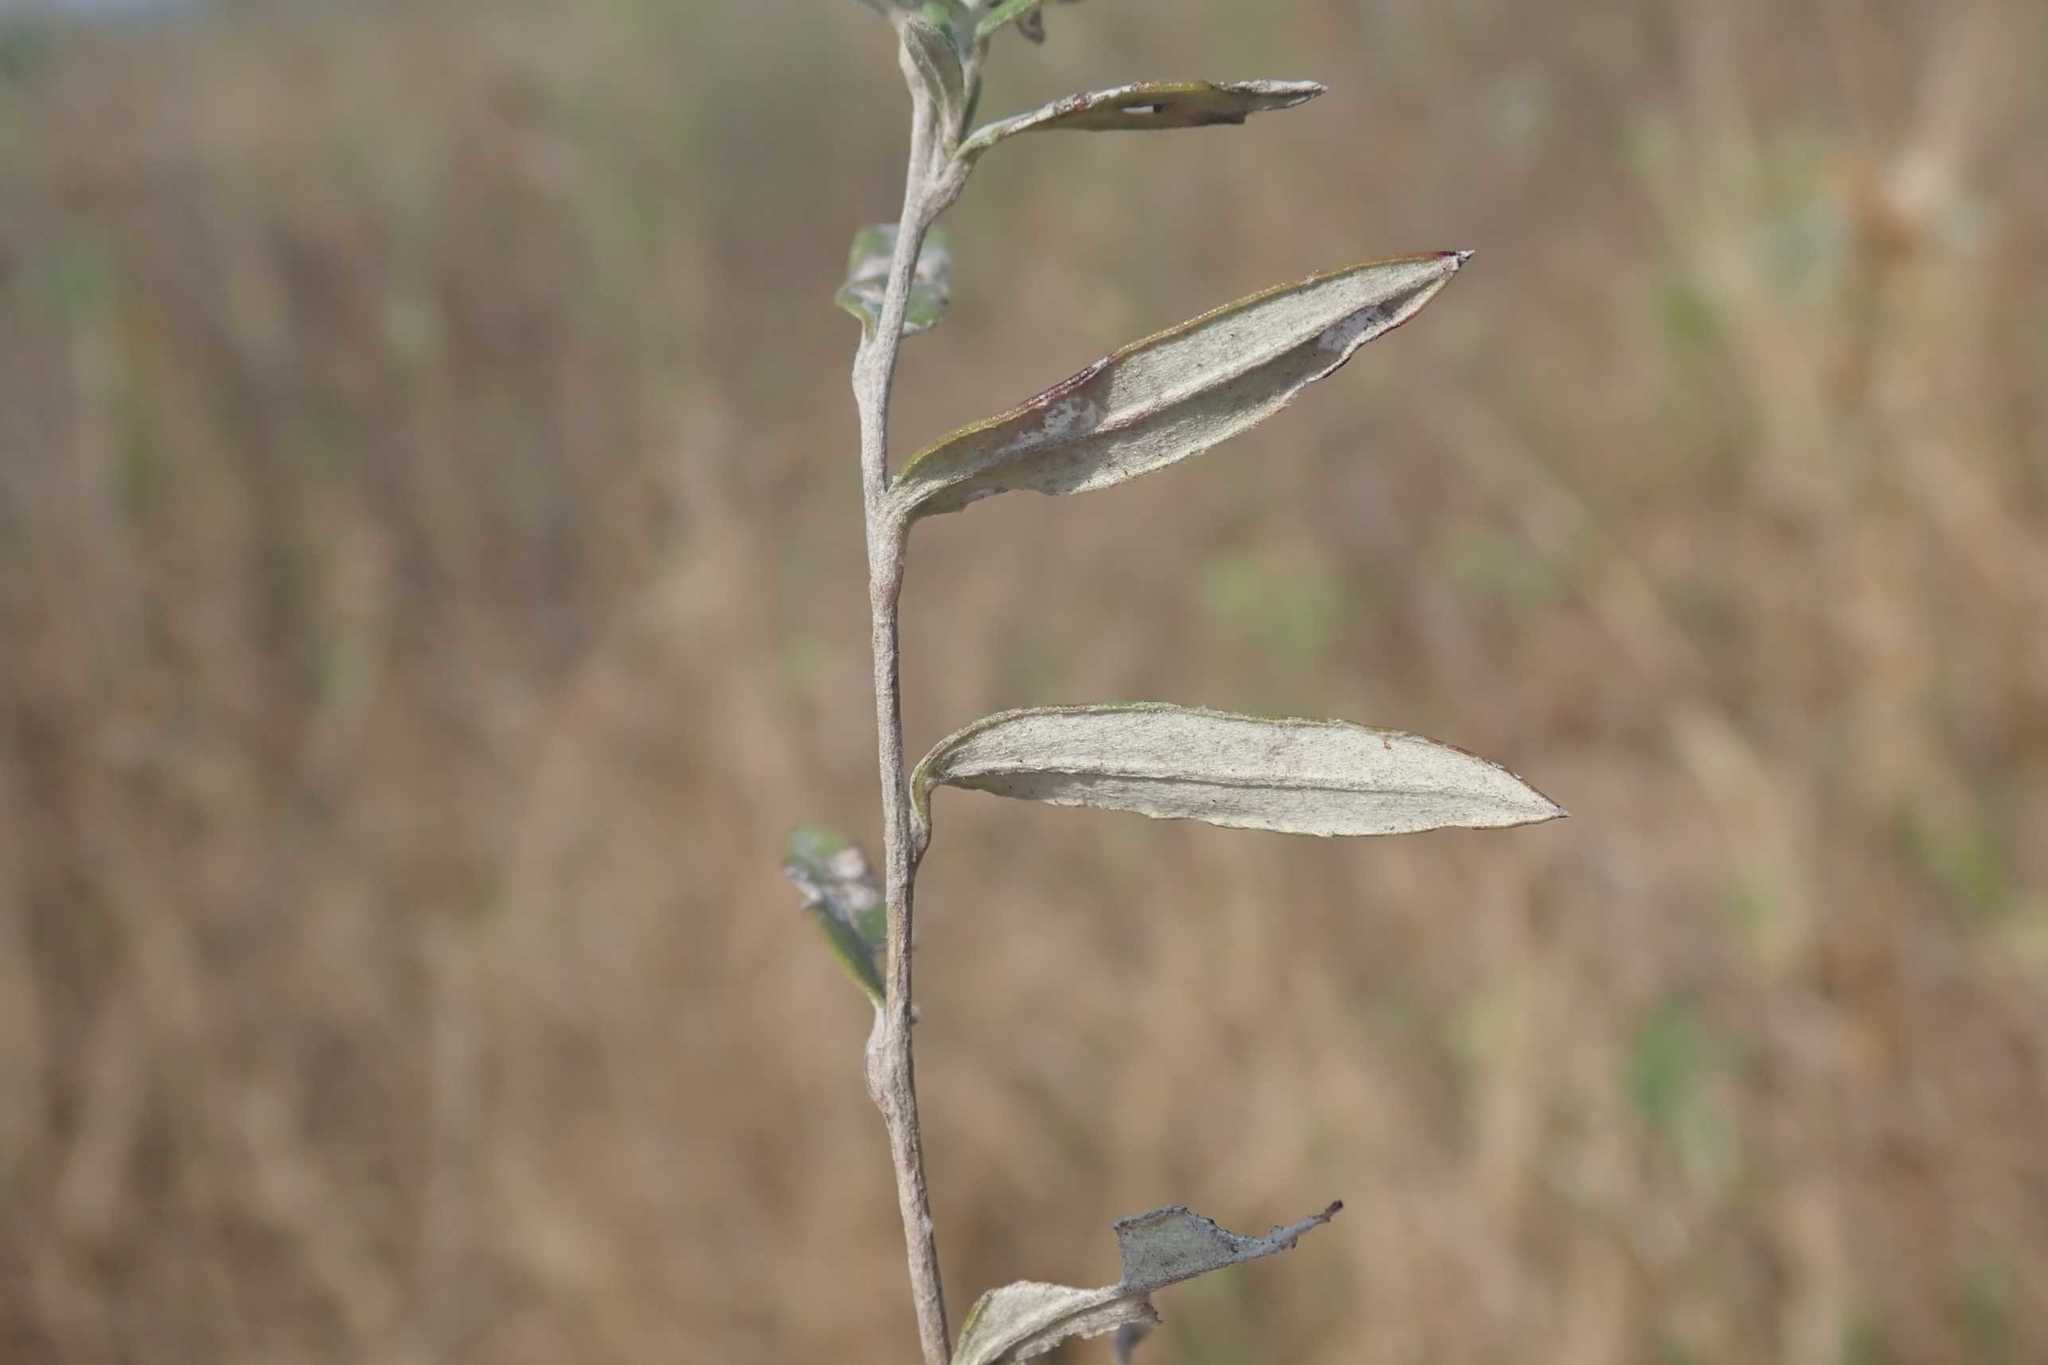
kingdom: Plantae
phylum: Tracheophyta
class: Magnoliopsida
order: Asterales
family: Asteraceae
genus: Athrixia
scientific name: Athrixia phylicoides
